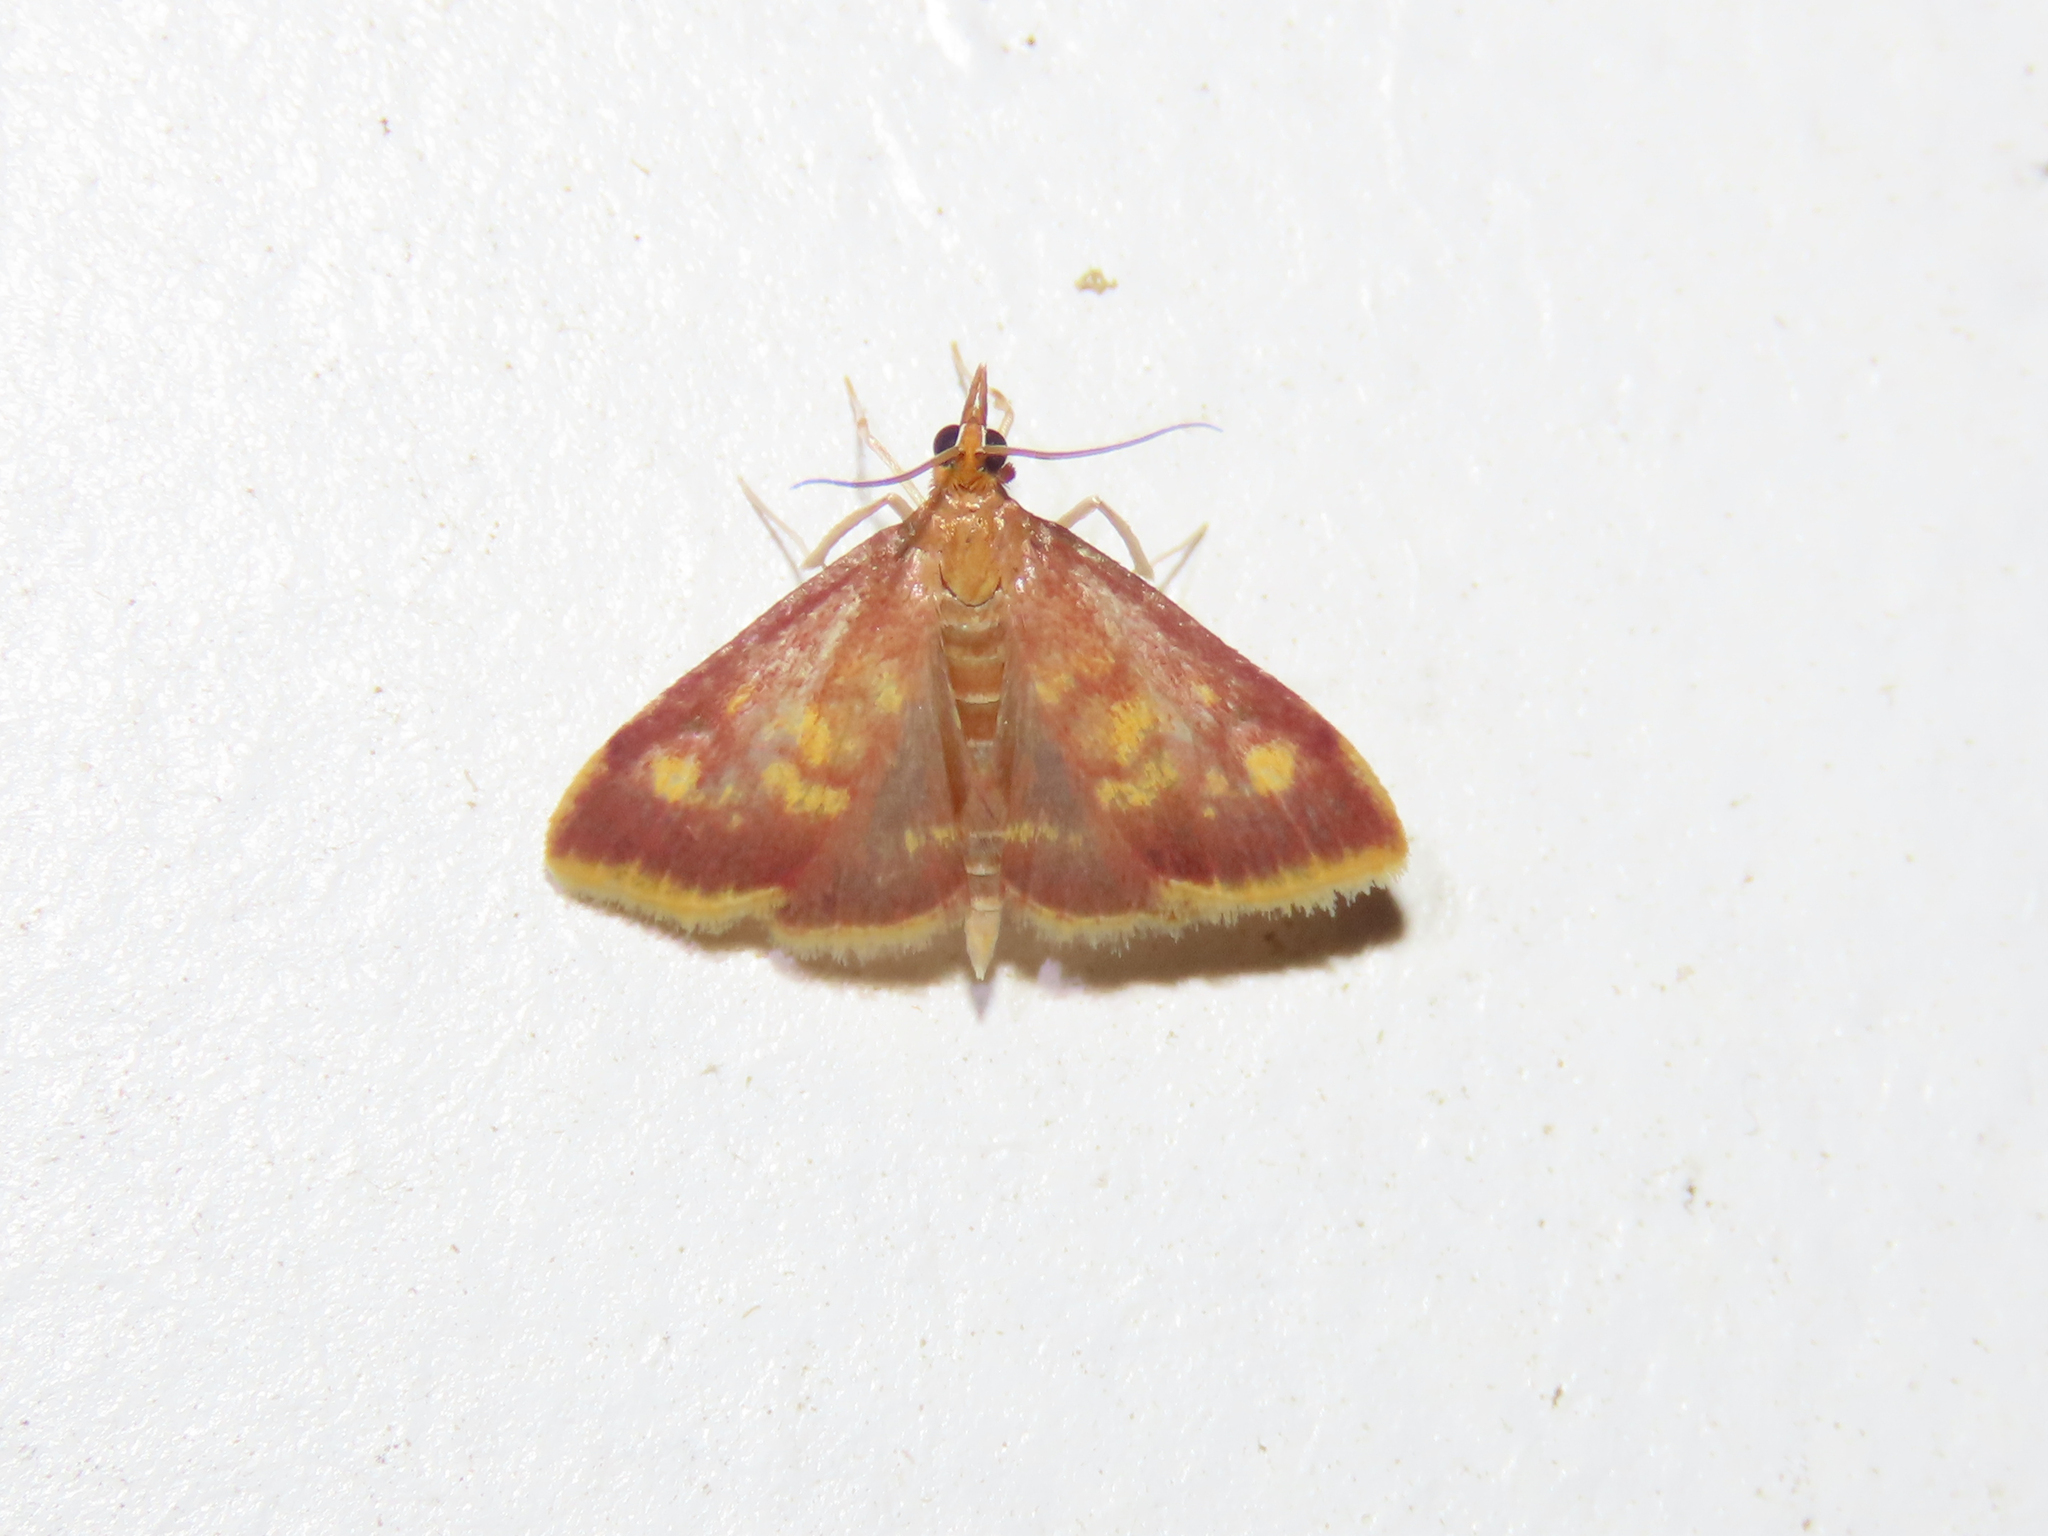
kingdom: Animalia
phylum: Arthropoda
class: Insecta
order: Lepidoptera
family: Crambidae
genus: Pyrausta
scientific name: Pyrausta acrionalis
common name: Mint-loving pyrausta moth
